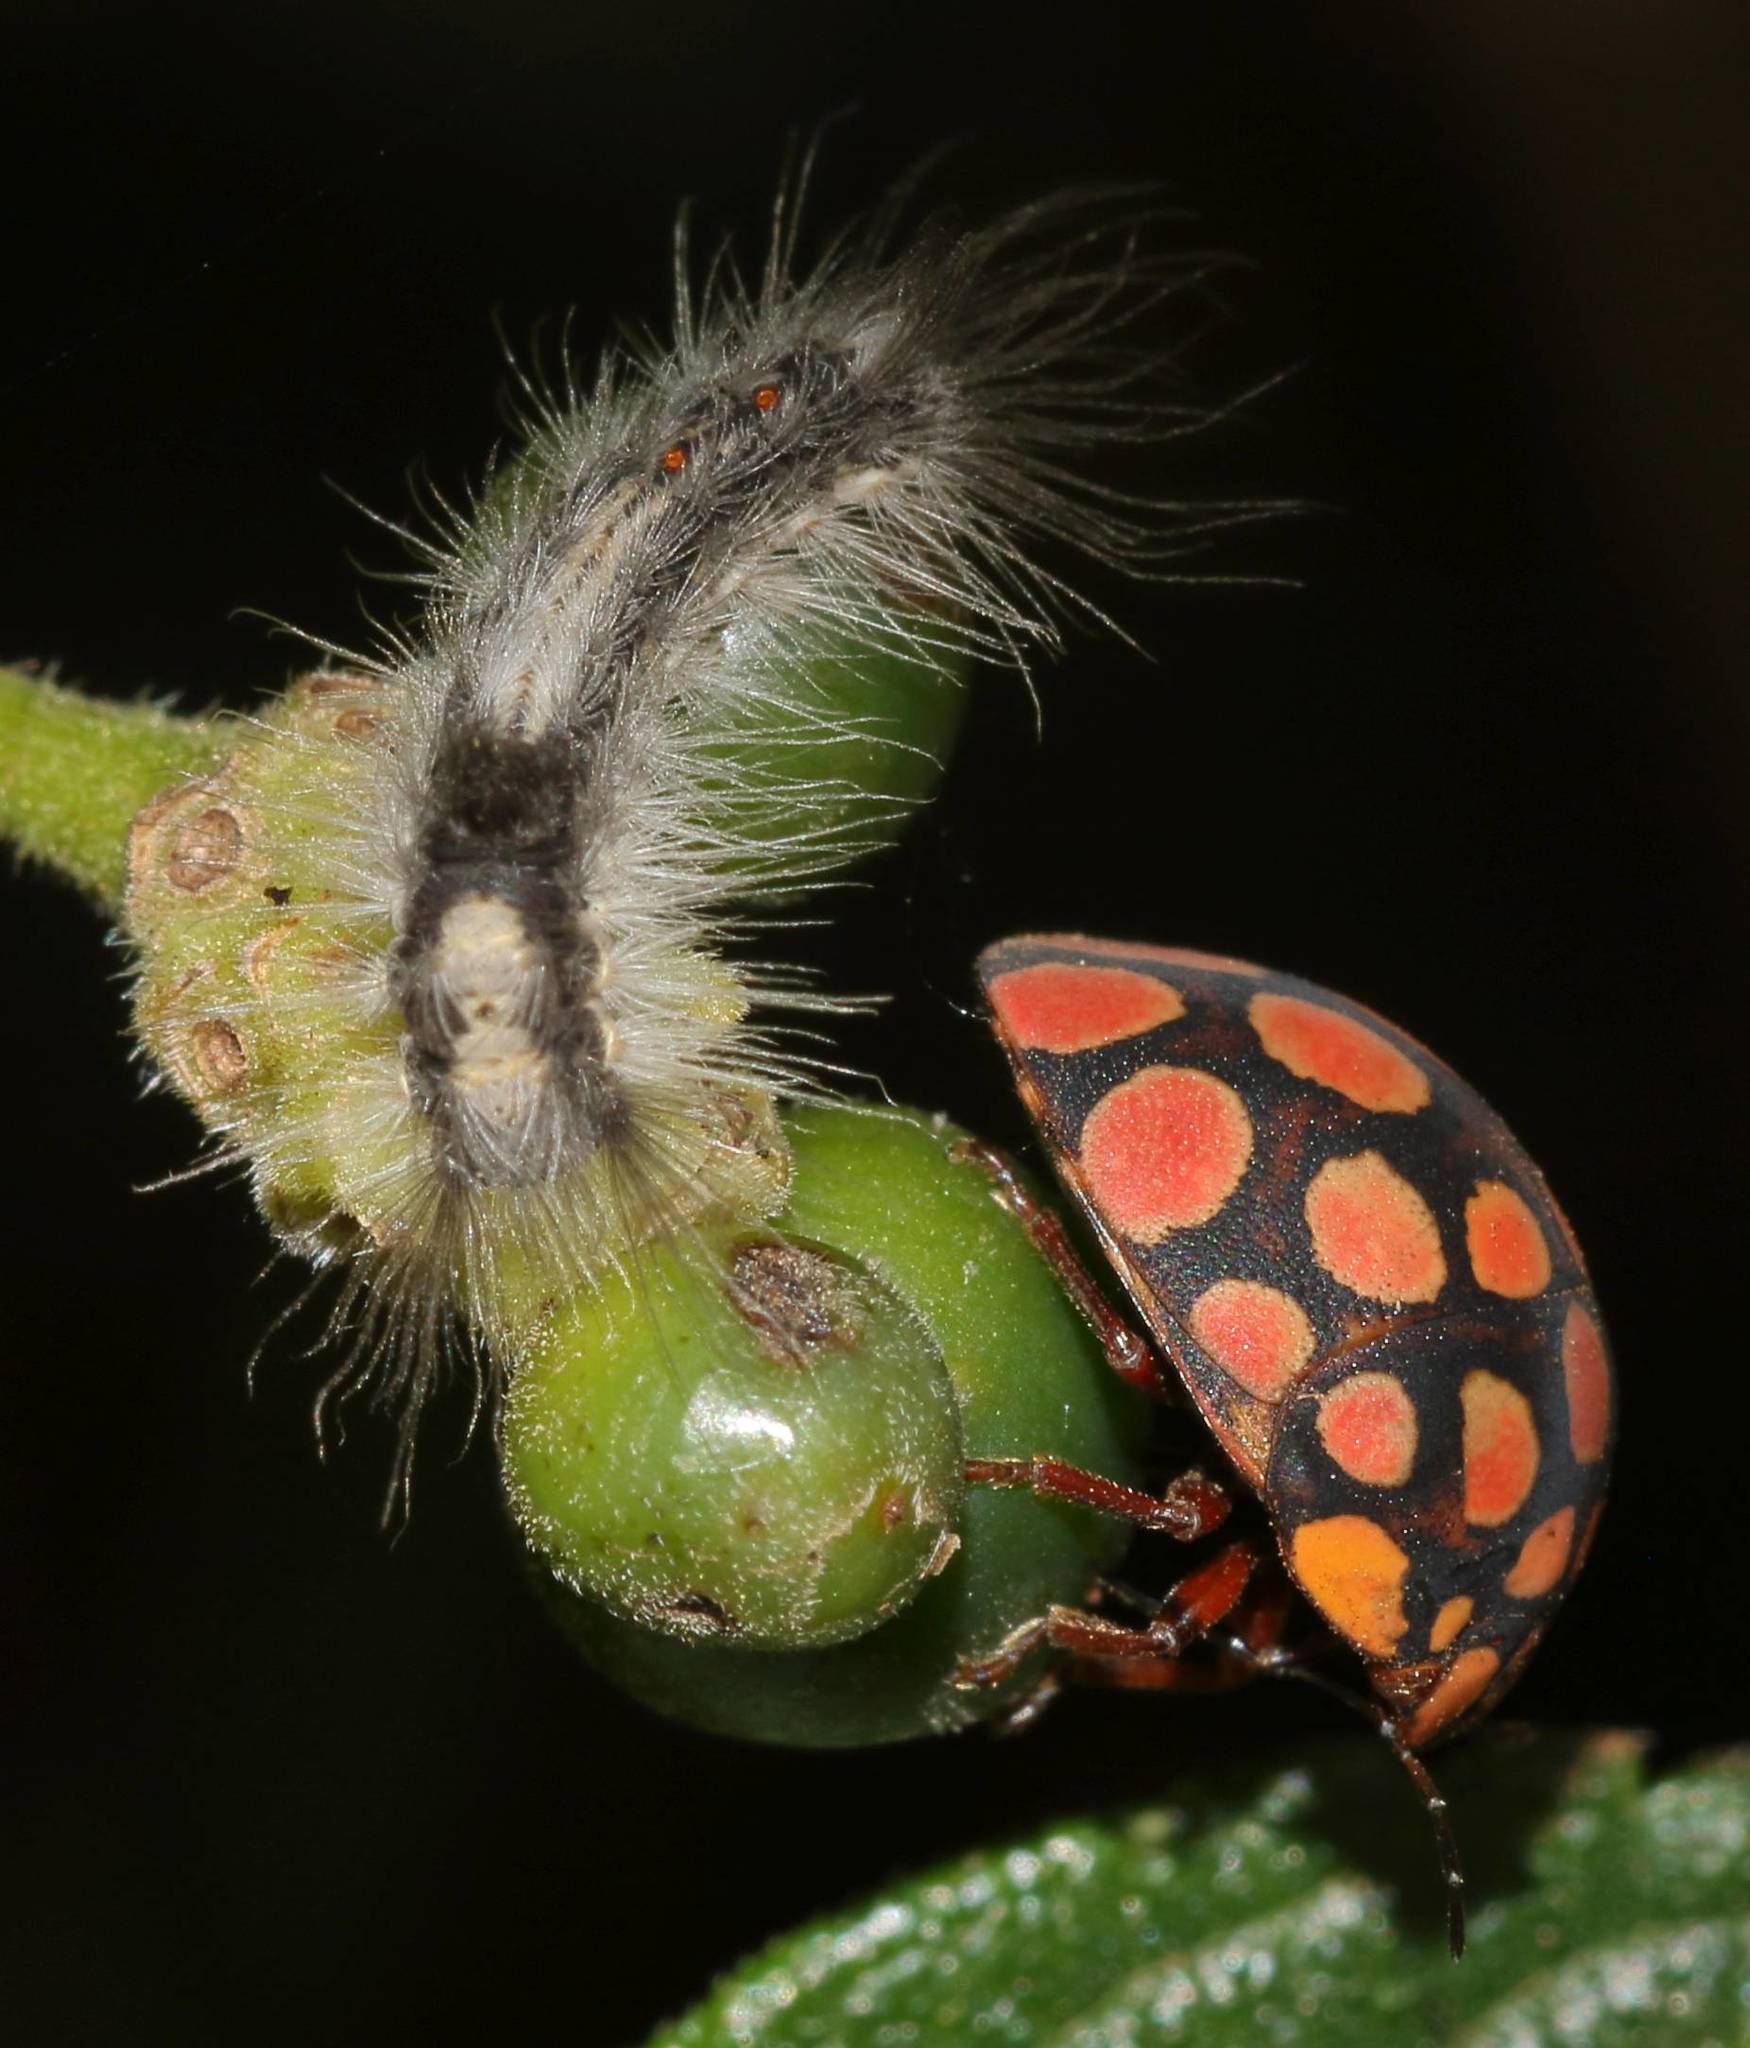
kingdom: Animalia
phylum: Arthropoda
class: Insecta
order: Hemiptera
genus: Steganocerus
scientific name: Steganocerus multipunctatus
